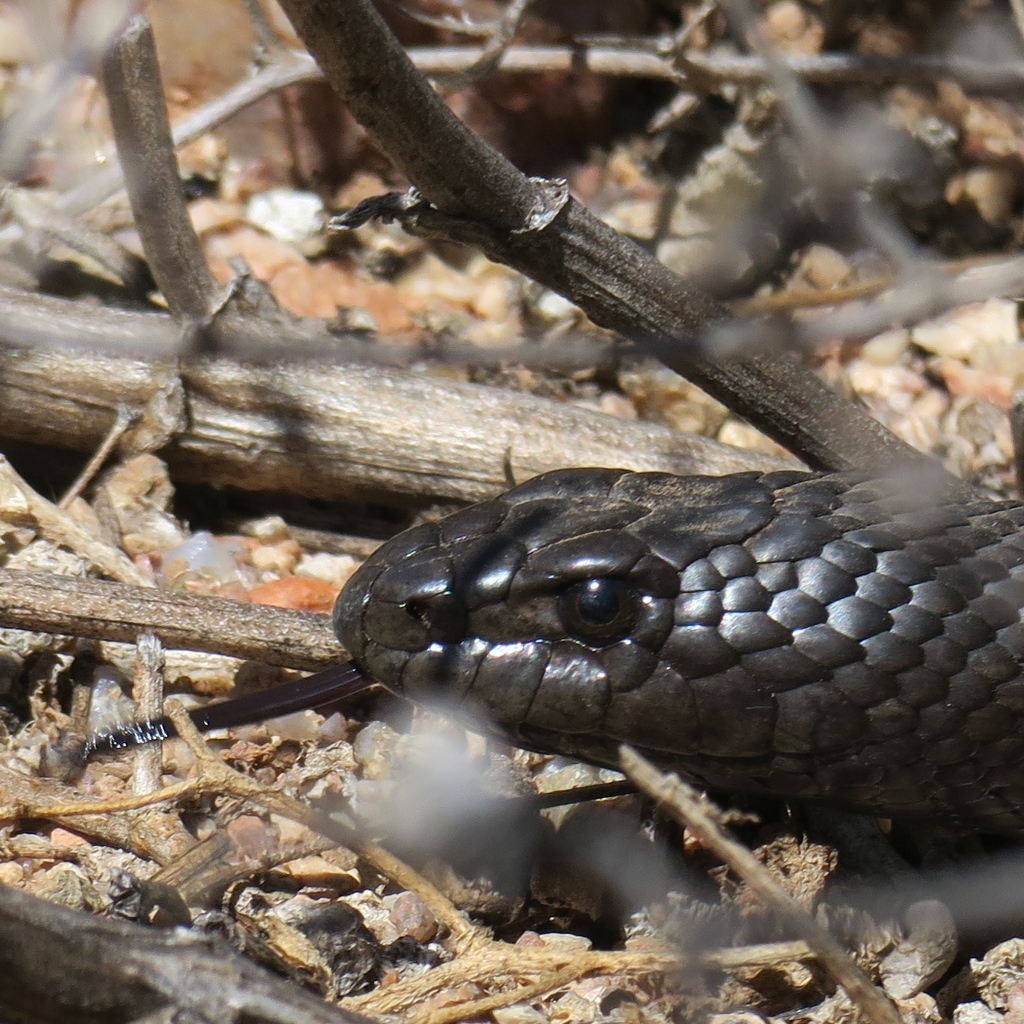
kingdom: Animalia
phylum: Chordata
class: Squamata
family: Pseudaspididae
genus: Pseudaspis
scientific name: Pseudaspis cana
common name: Mole snake
